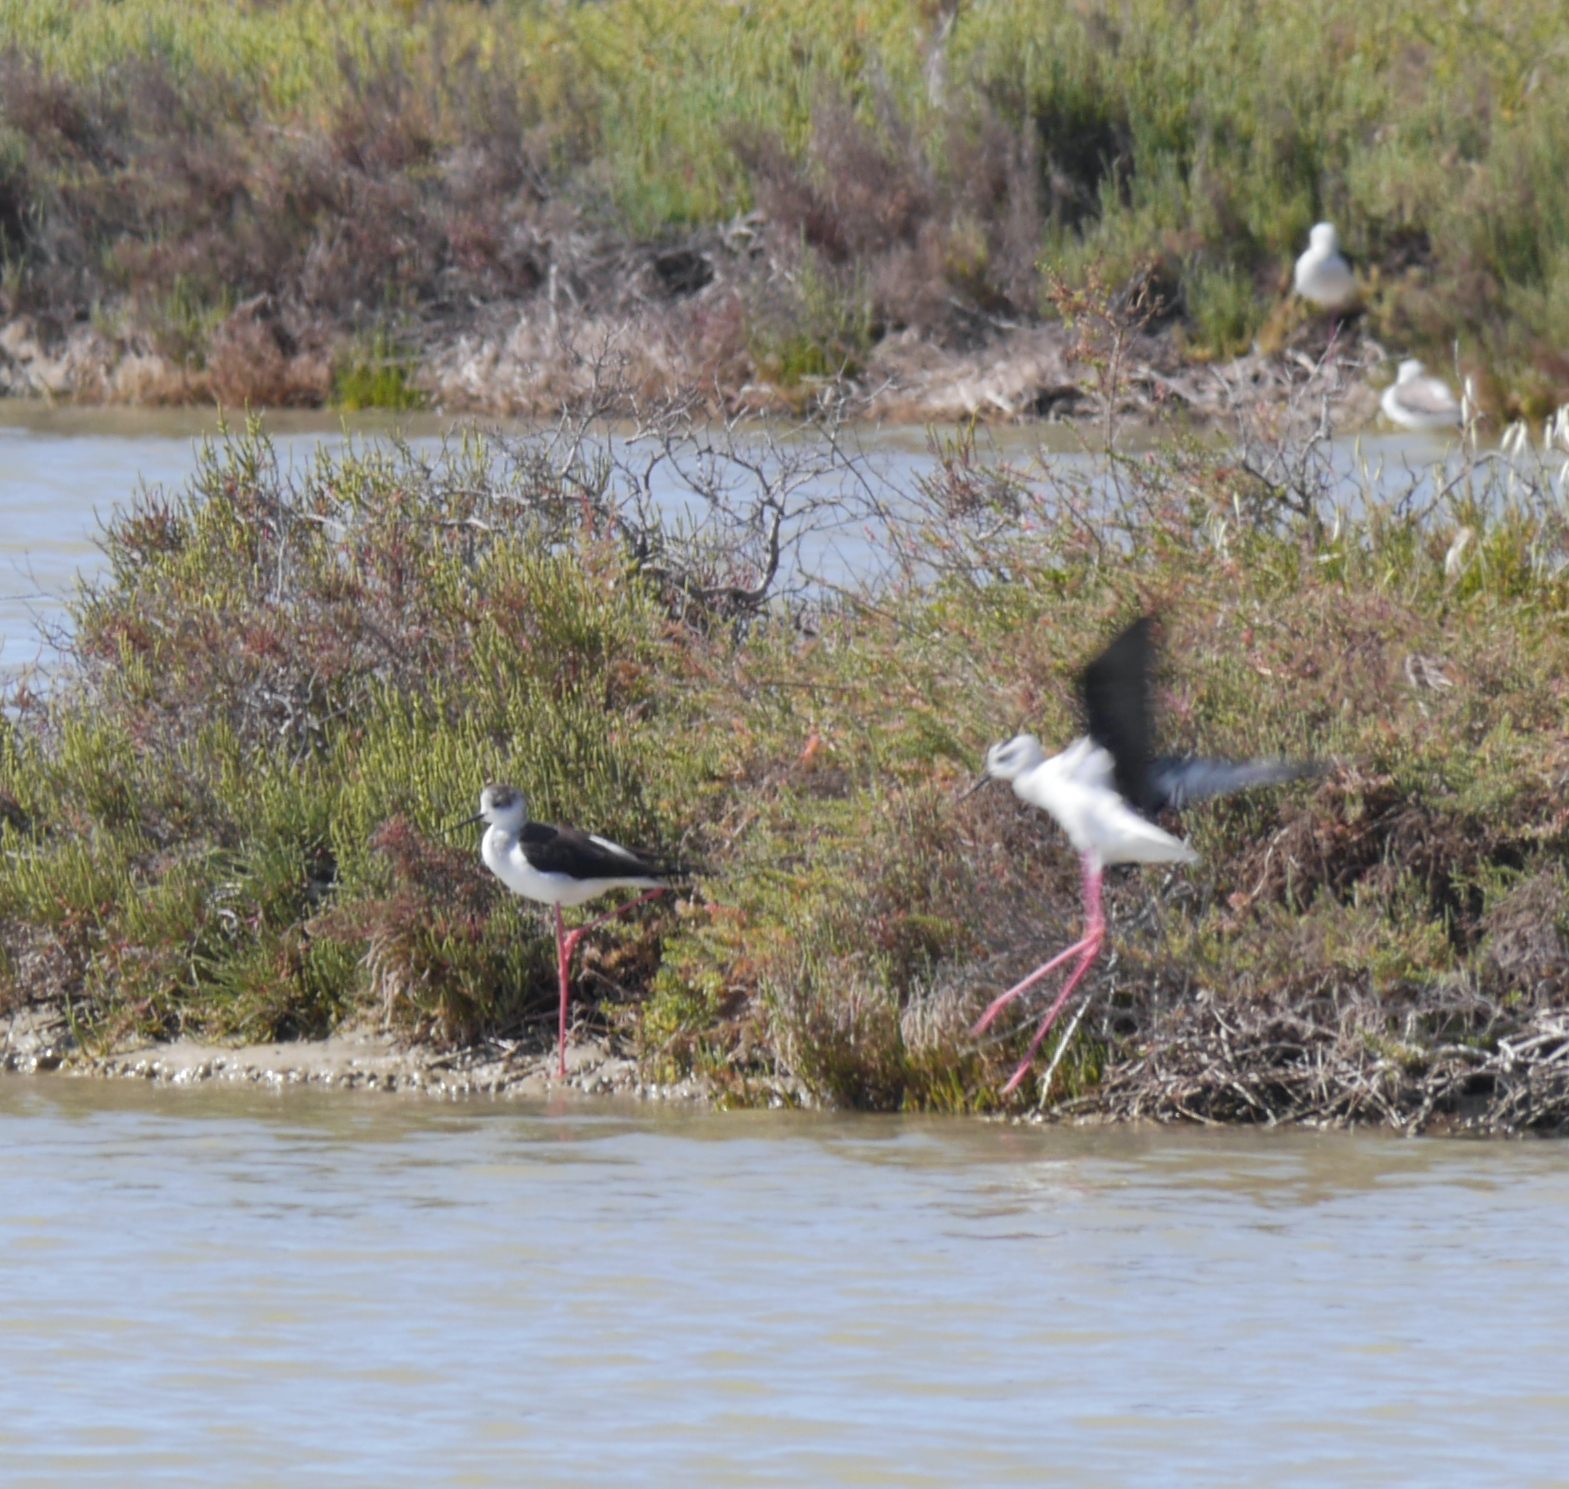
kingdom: Animalia
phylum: Chordata
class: Aves
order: Charadriiformes
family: Recurvirostridae
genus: Himantopus
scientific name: Himantopus himantopus
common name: Black-winged stilt
